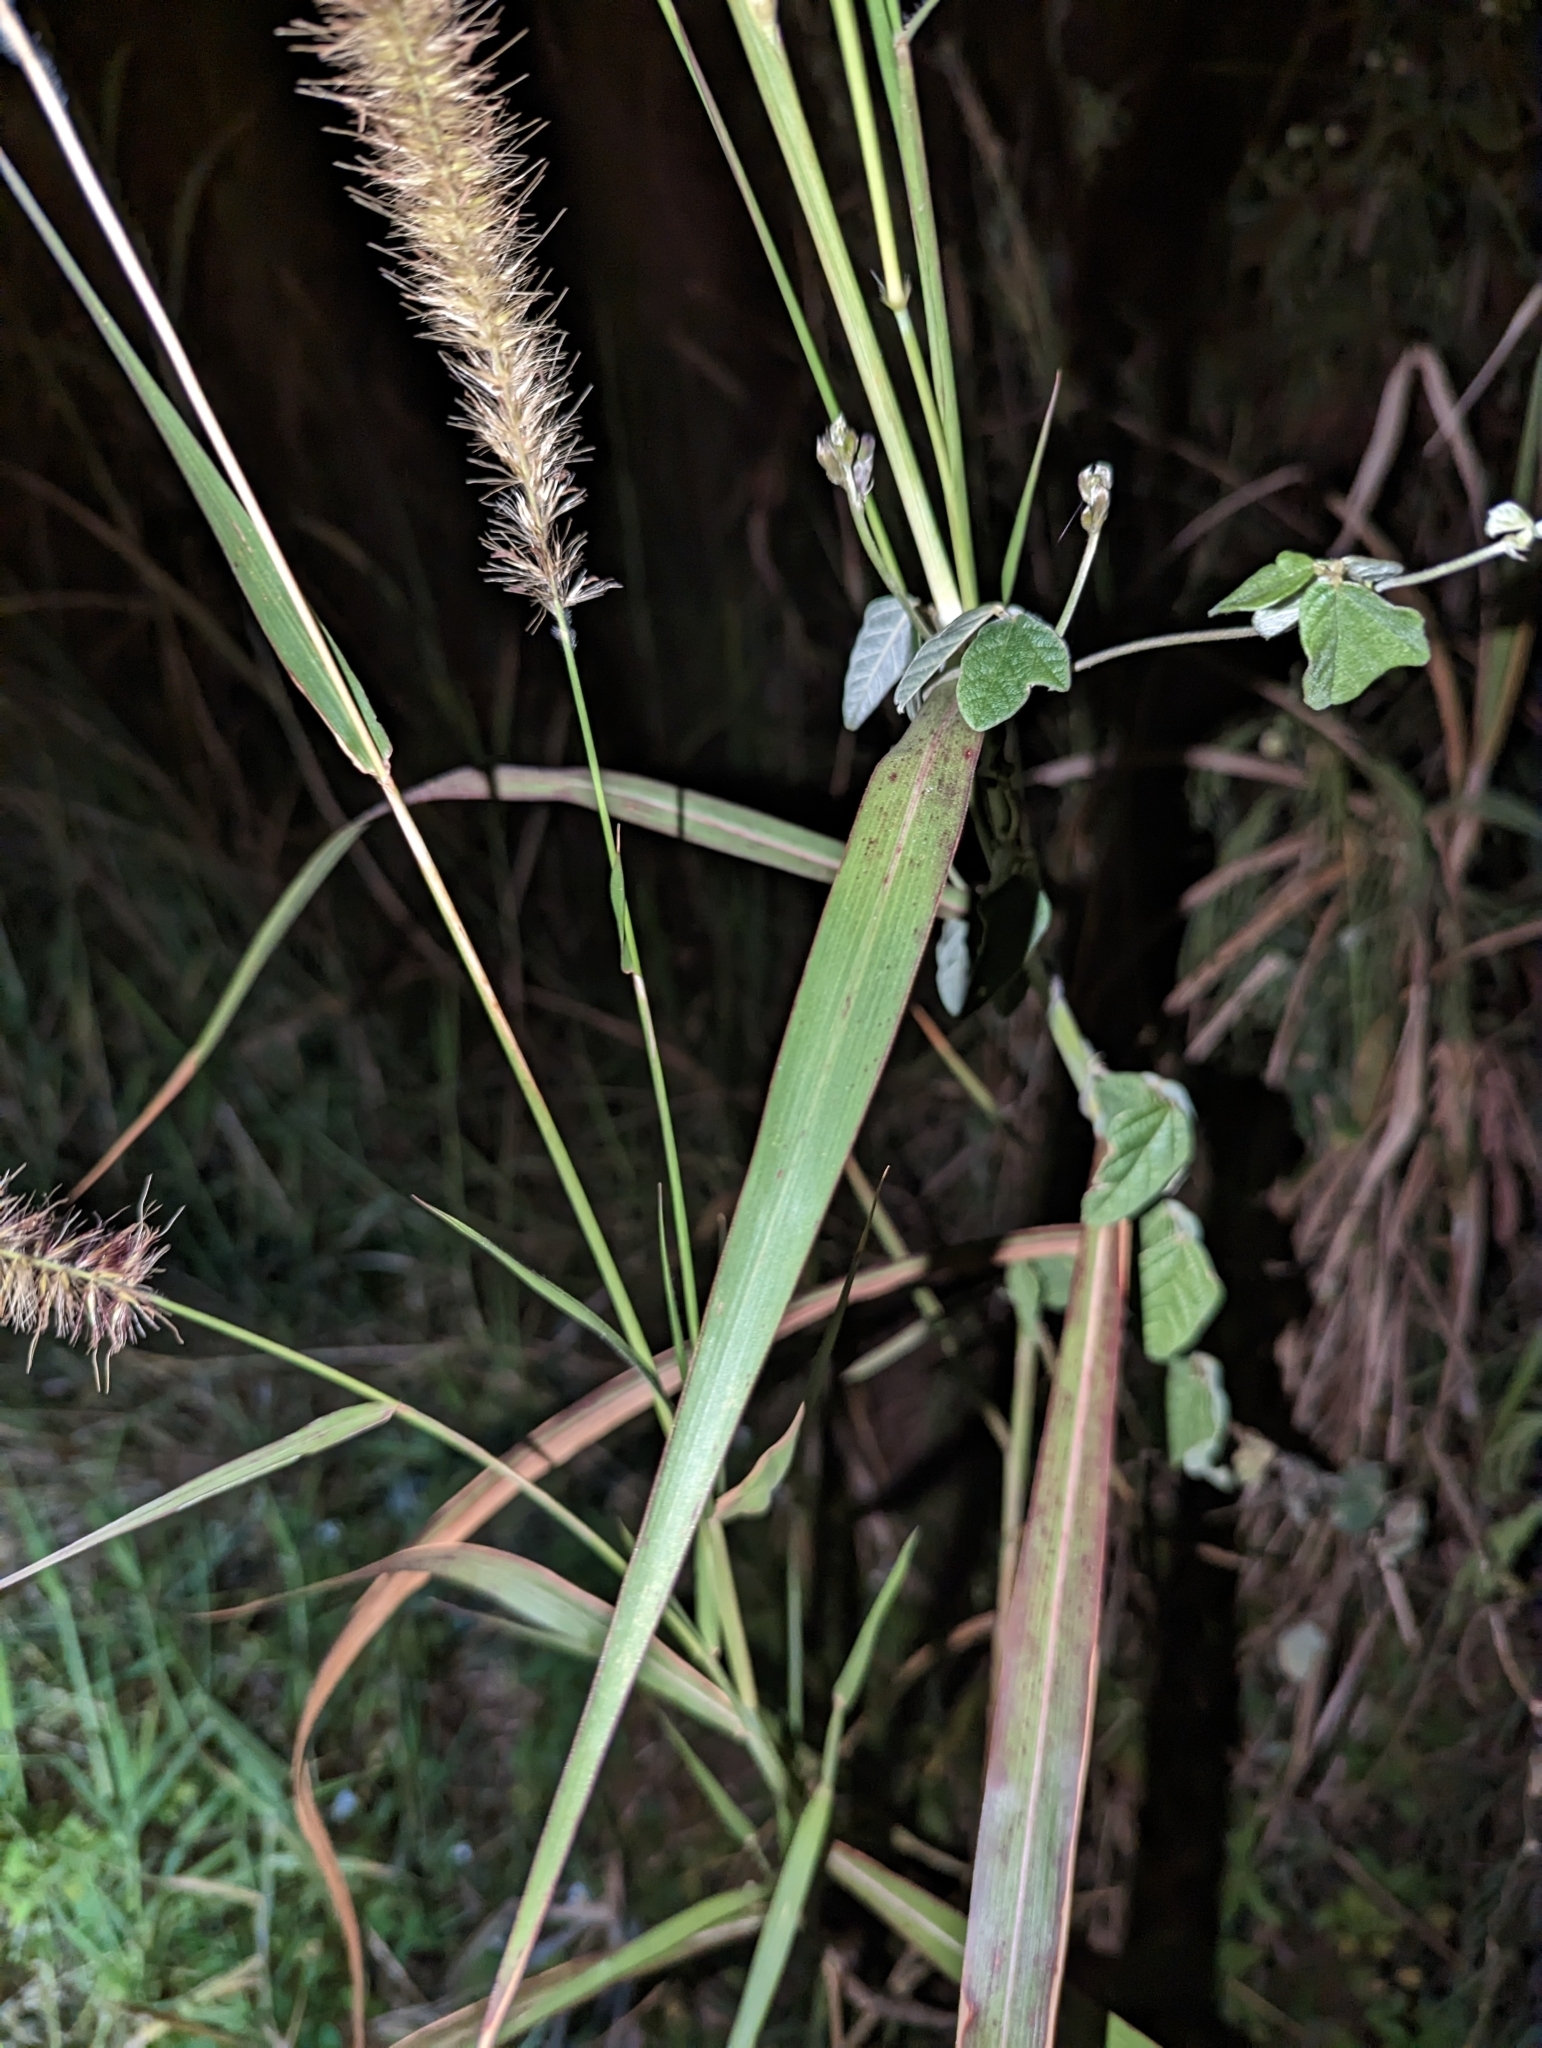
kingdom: Plantae
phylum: Tracheophyta
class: Liliopsida
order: Poales
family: Poaceae
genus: Setaria
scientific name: Setaria parviflora
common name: Knotroot bristle-grass
